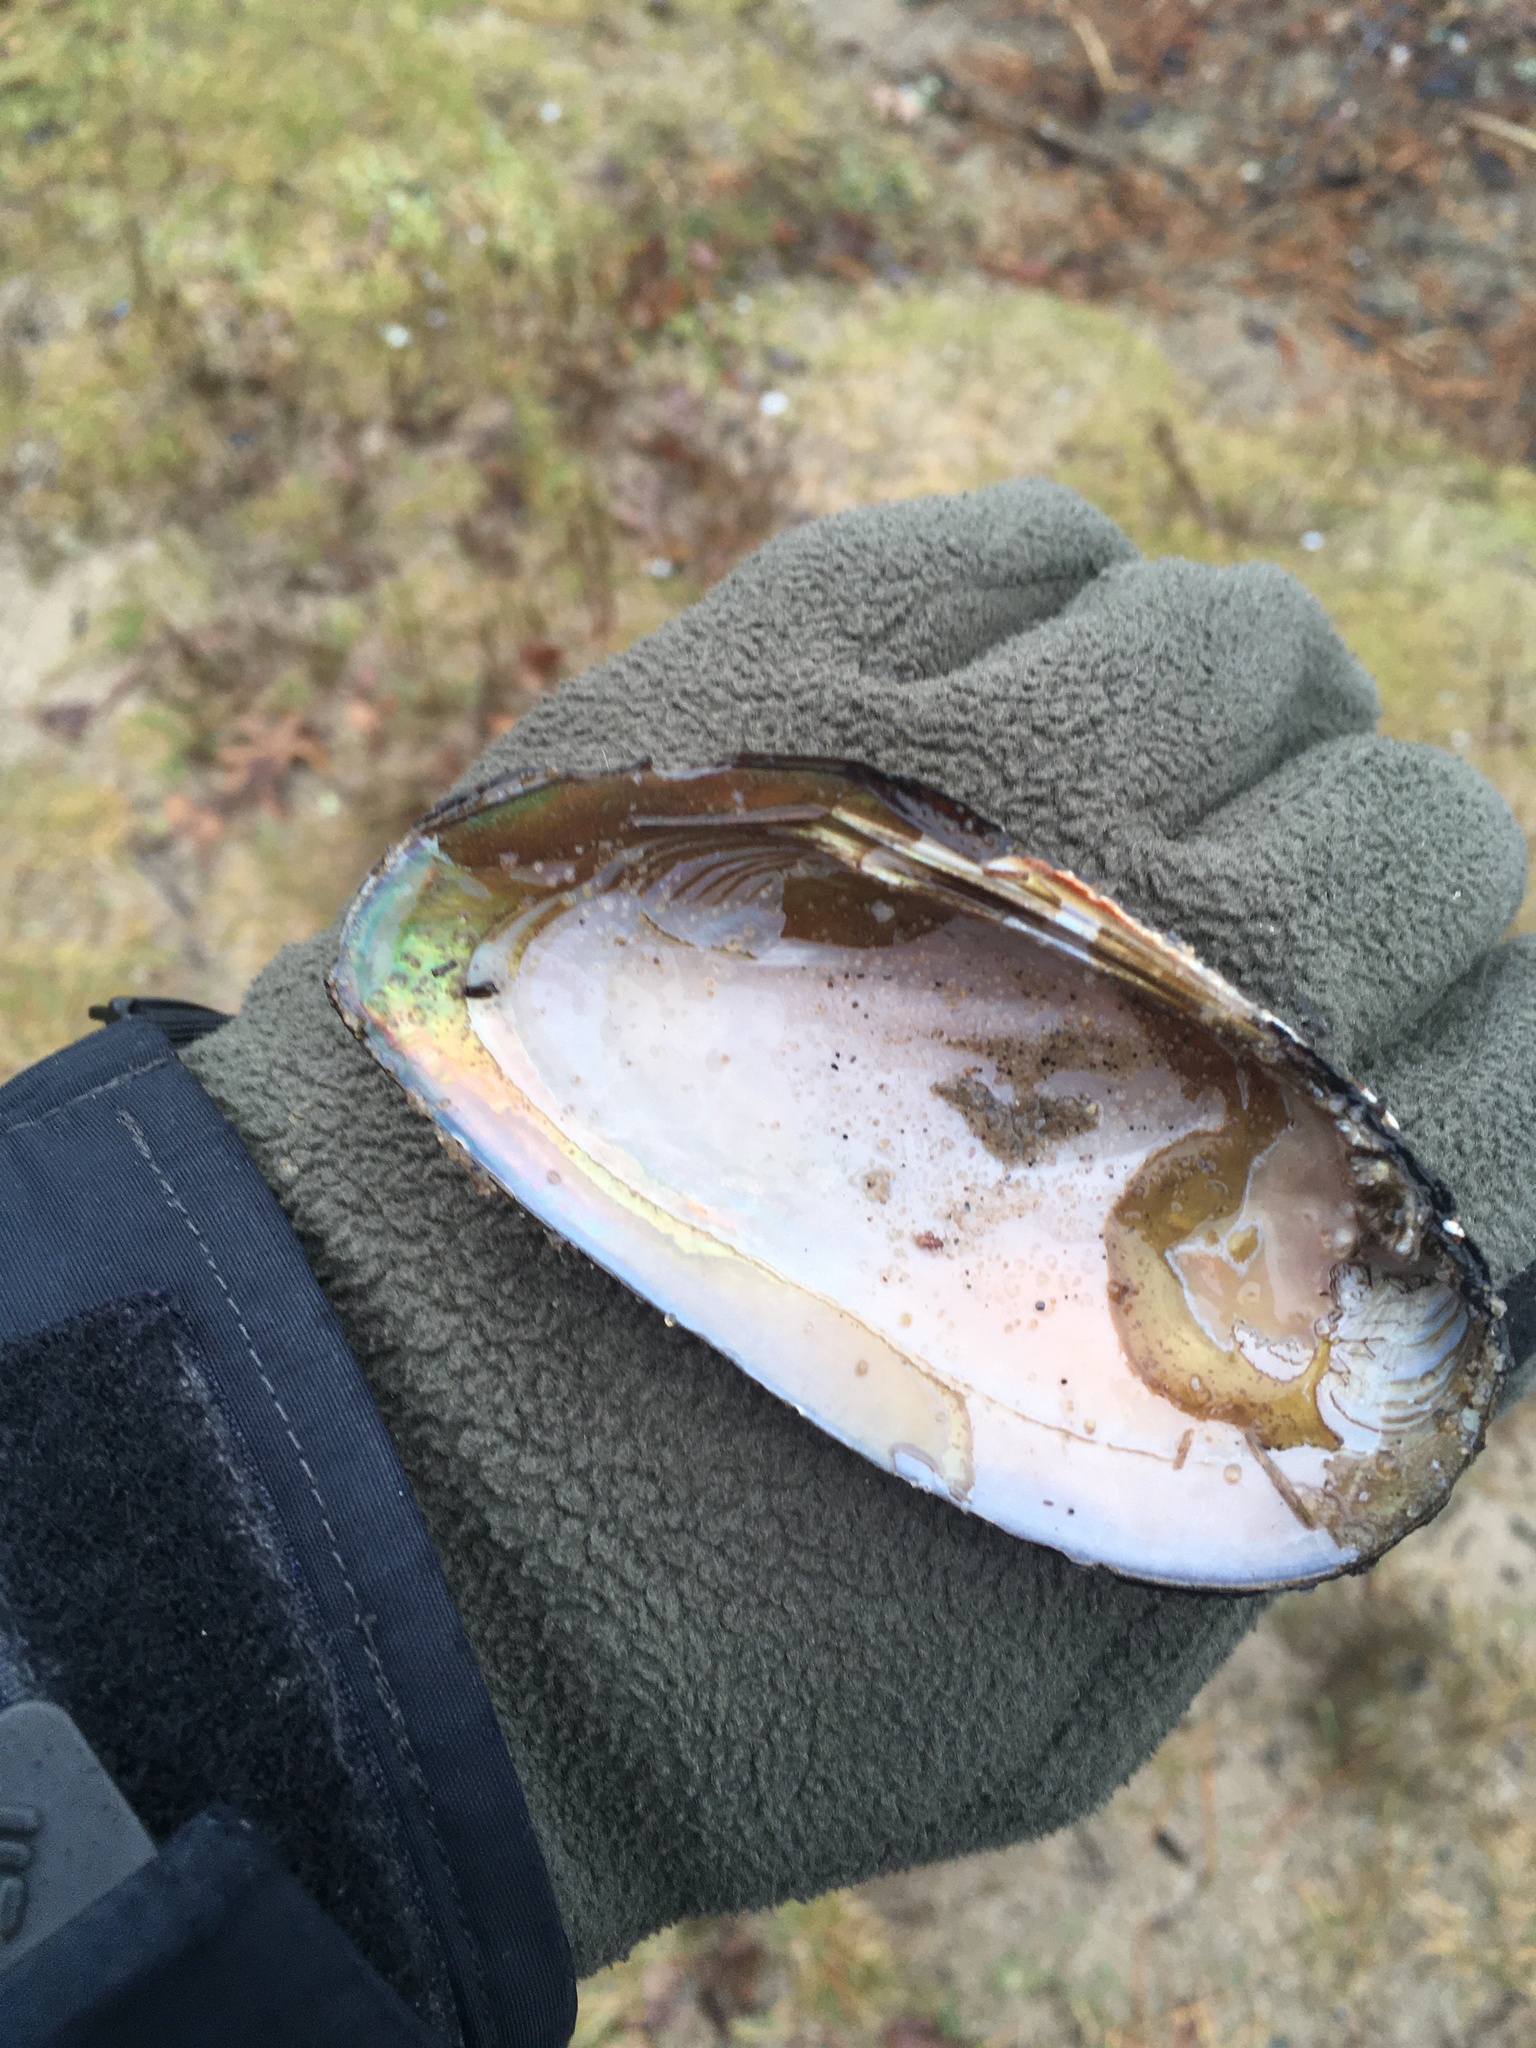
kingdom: Animalia
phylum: Mollusca
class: Bivalvia
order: Unionida
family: Unionidae
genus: Elliptio
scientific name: Elliptio complanata
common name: Eastern elliptio
